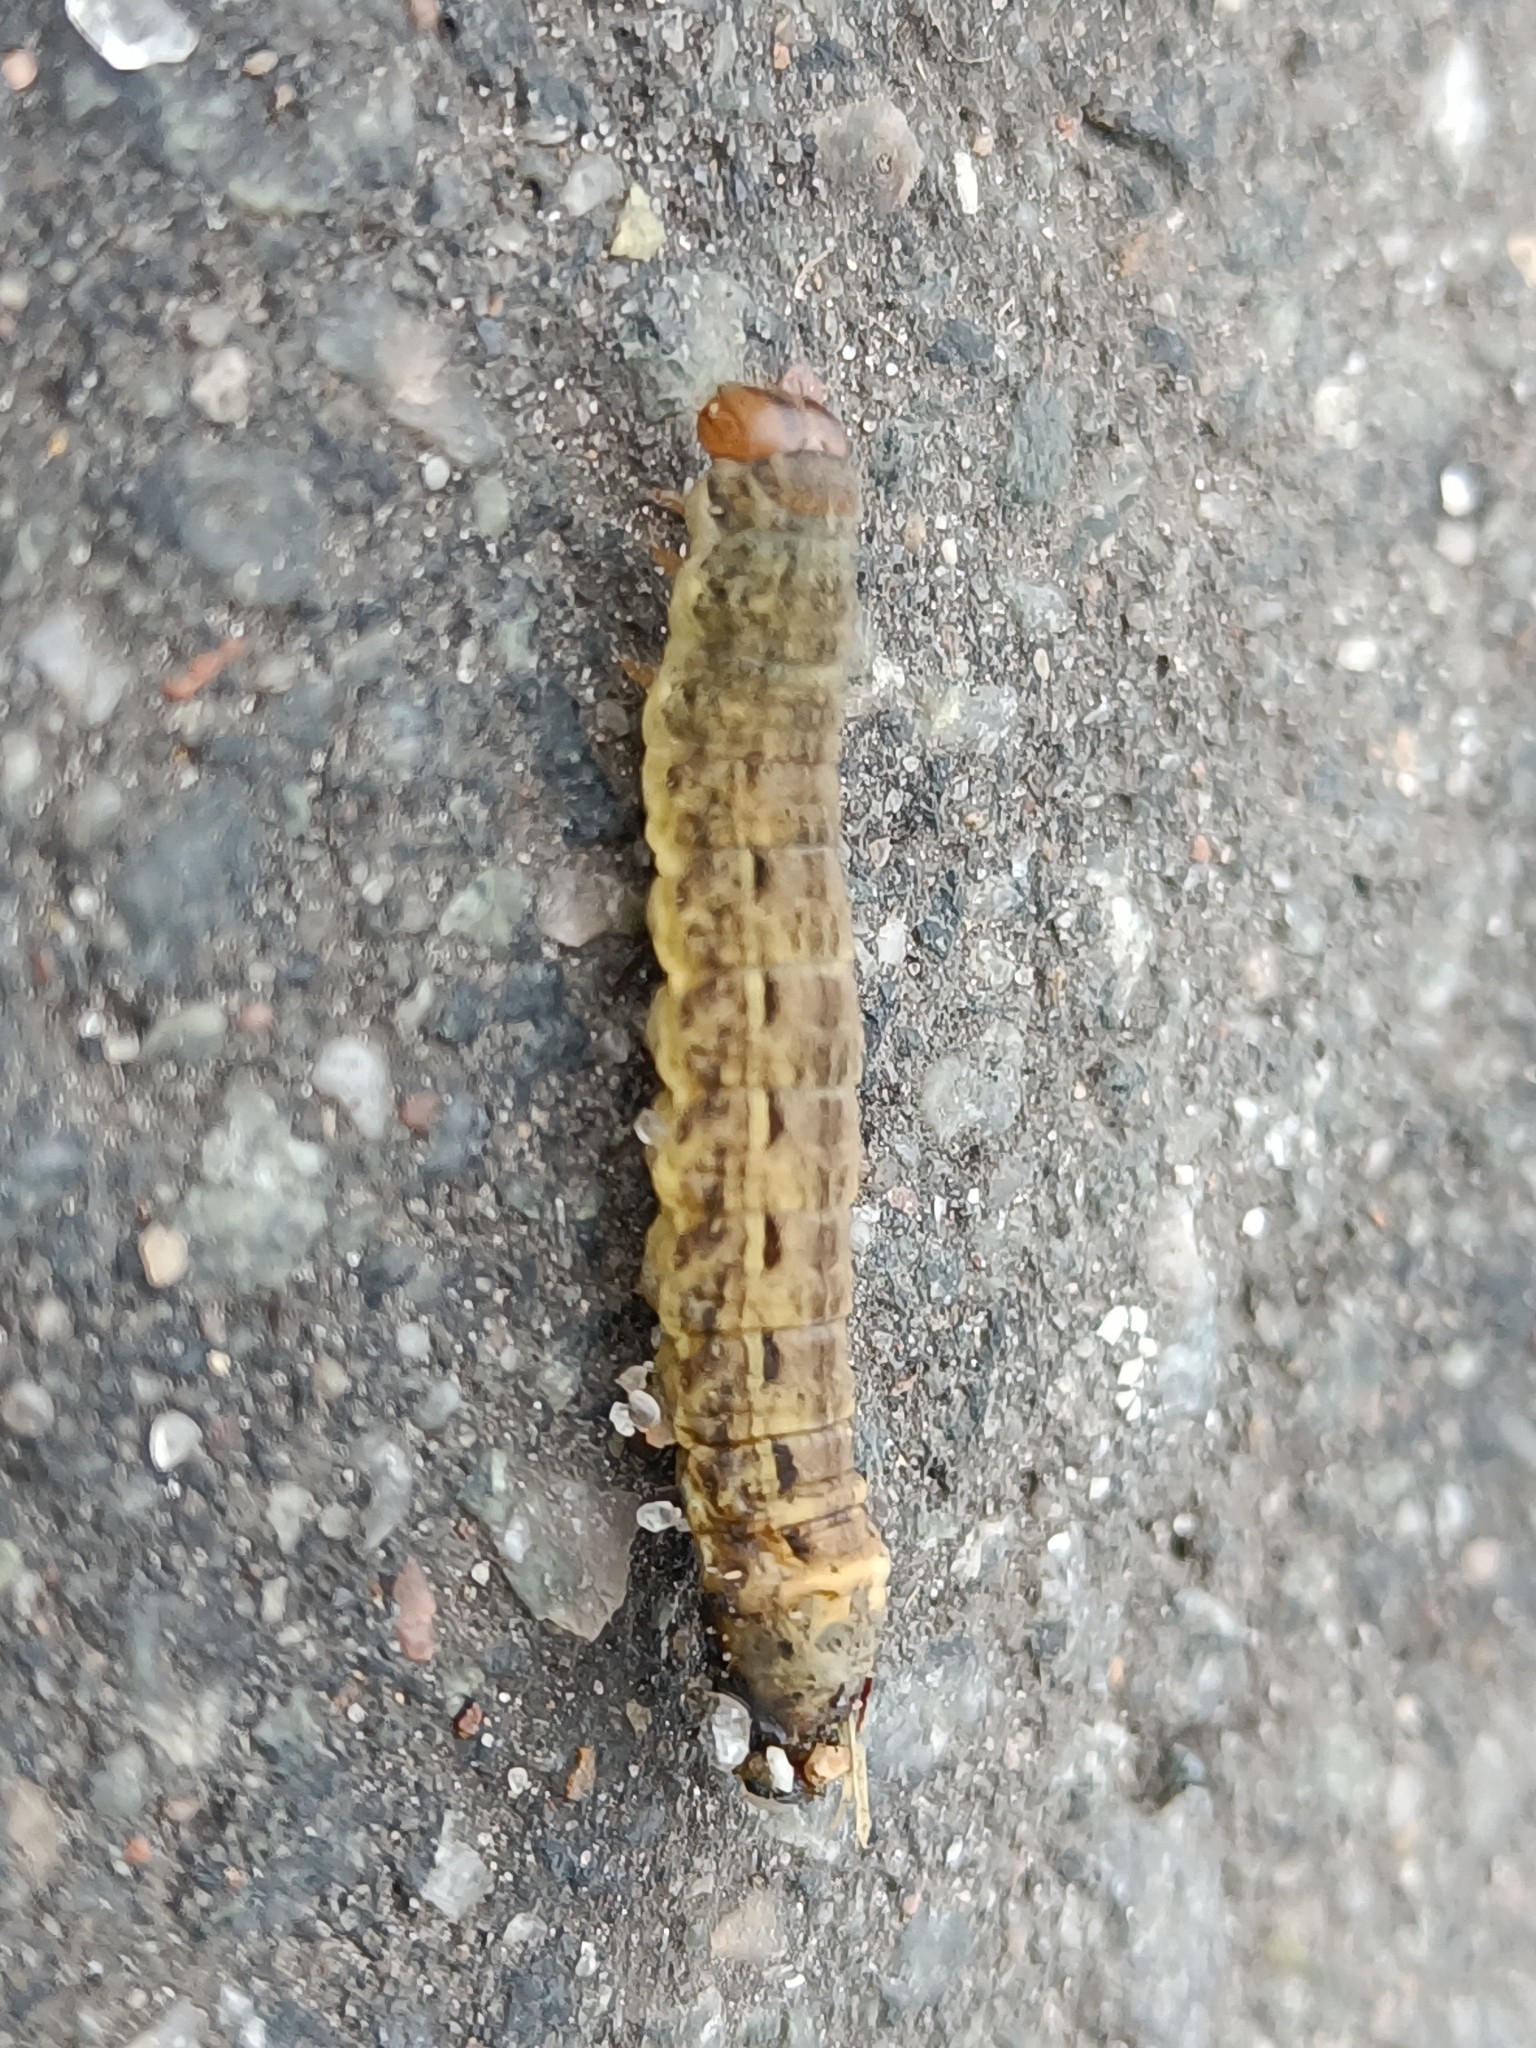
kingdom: Animalia
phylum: Arthropoda
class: Insecta
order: Lepidoptera
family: Noctuidae
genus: Noctua
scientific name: Noctua pronuba
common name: Large yellow underwing
